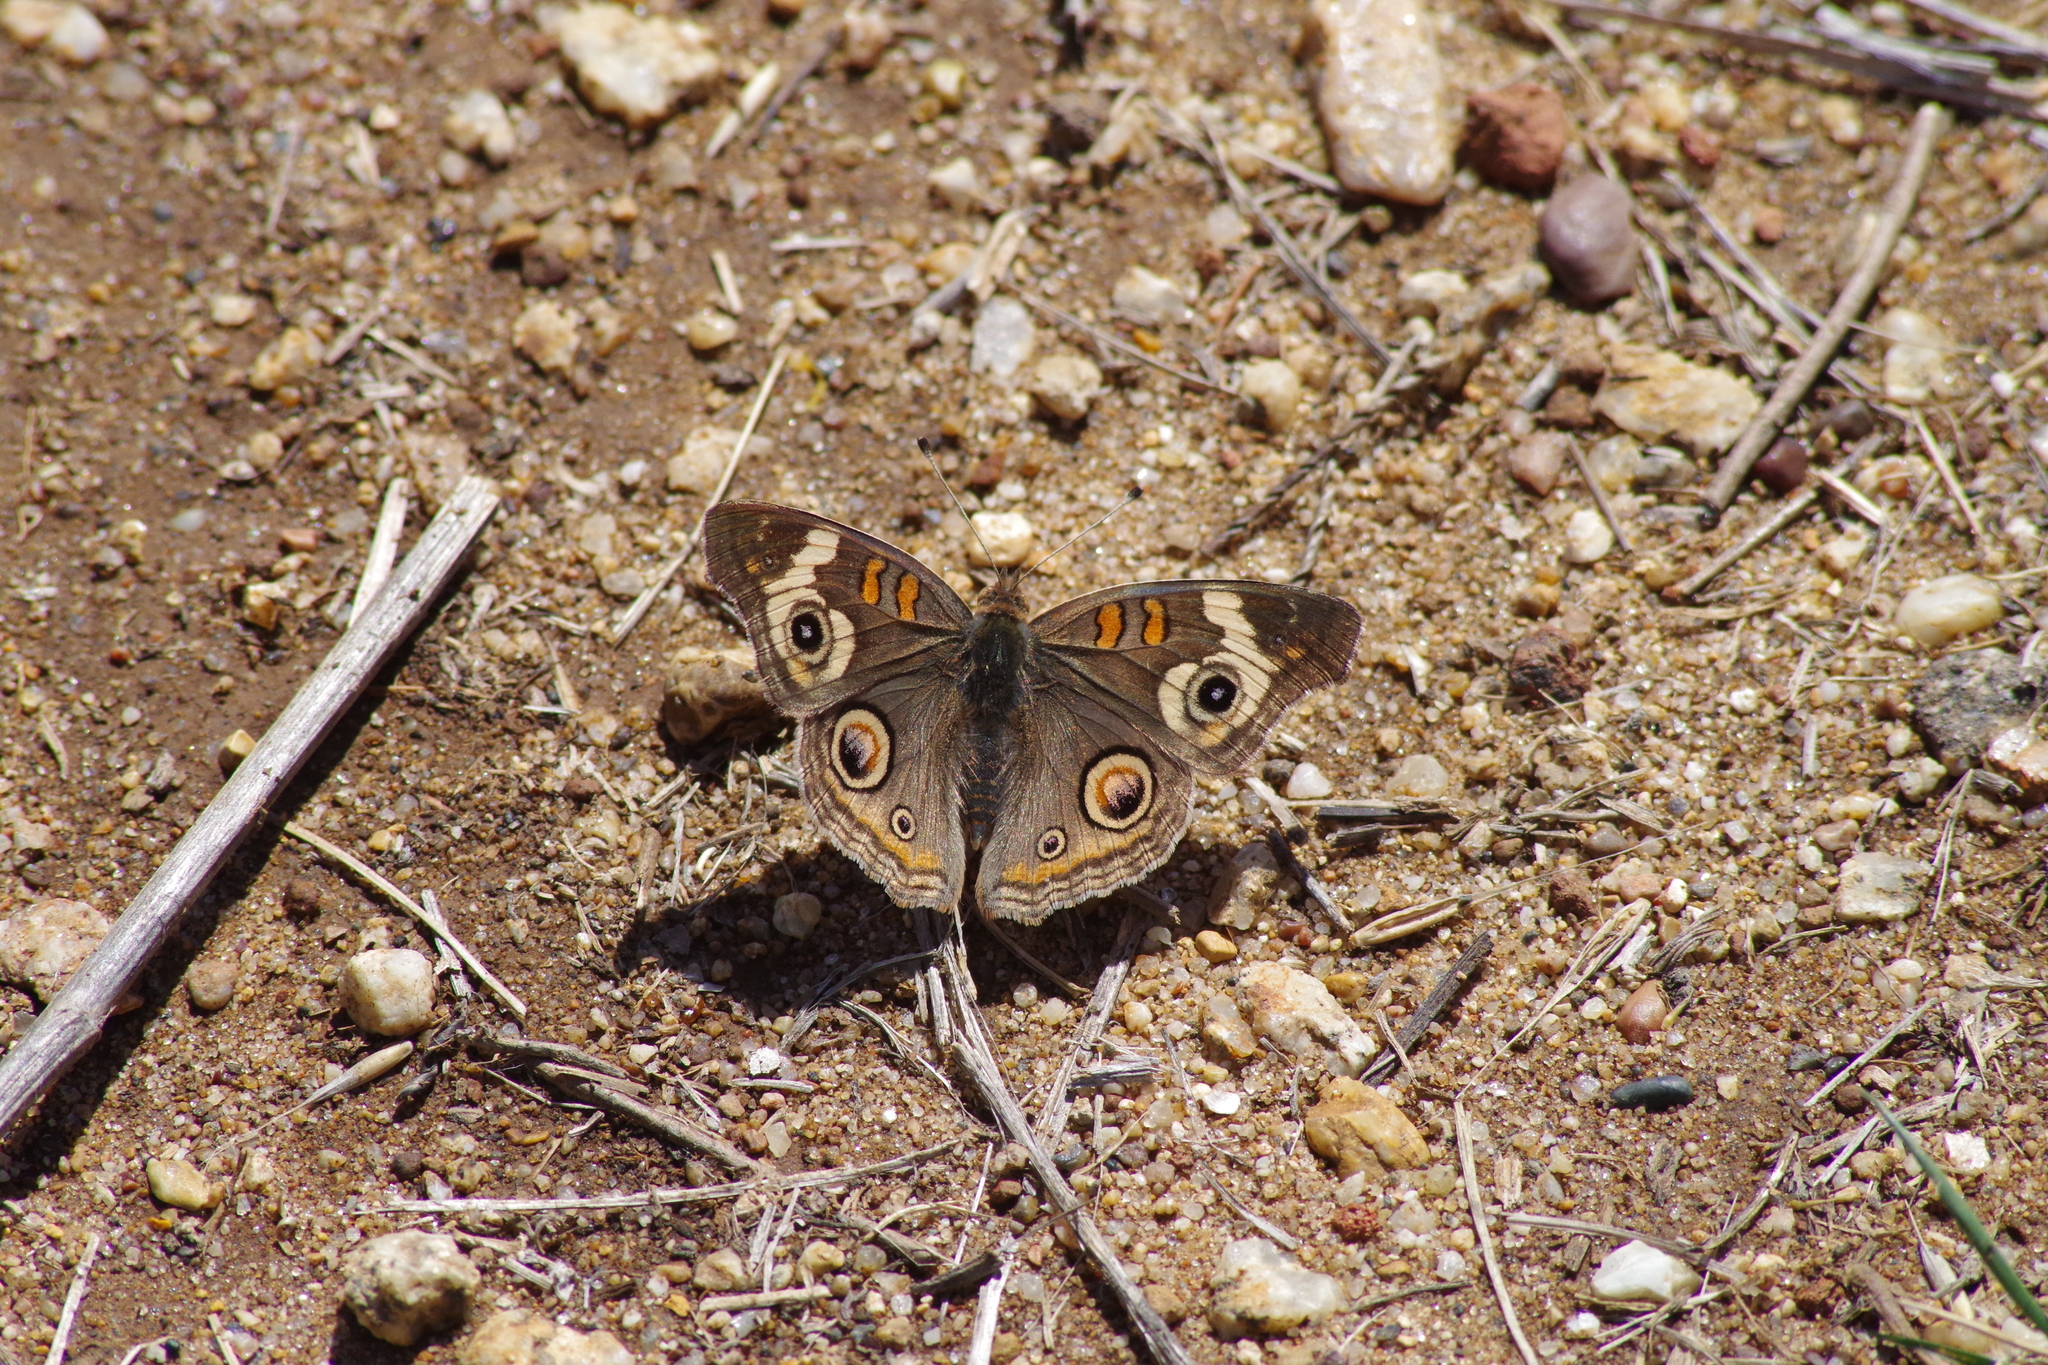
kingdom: Animalia
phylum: Arthropoda
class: Insecta
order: Lepidoptera
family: Nymphalidae
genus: Junonia
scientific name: Junonia grisea
